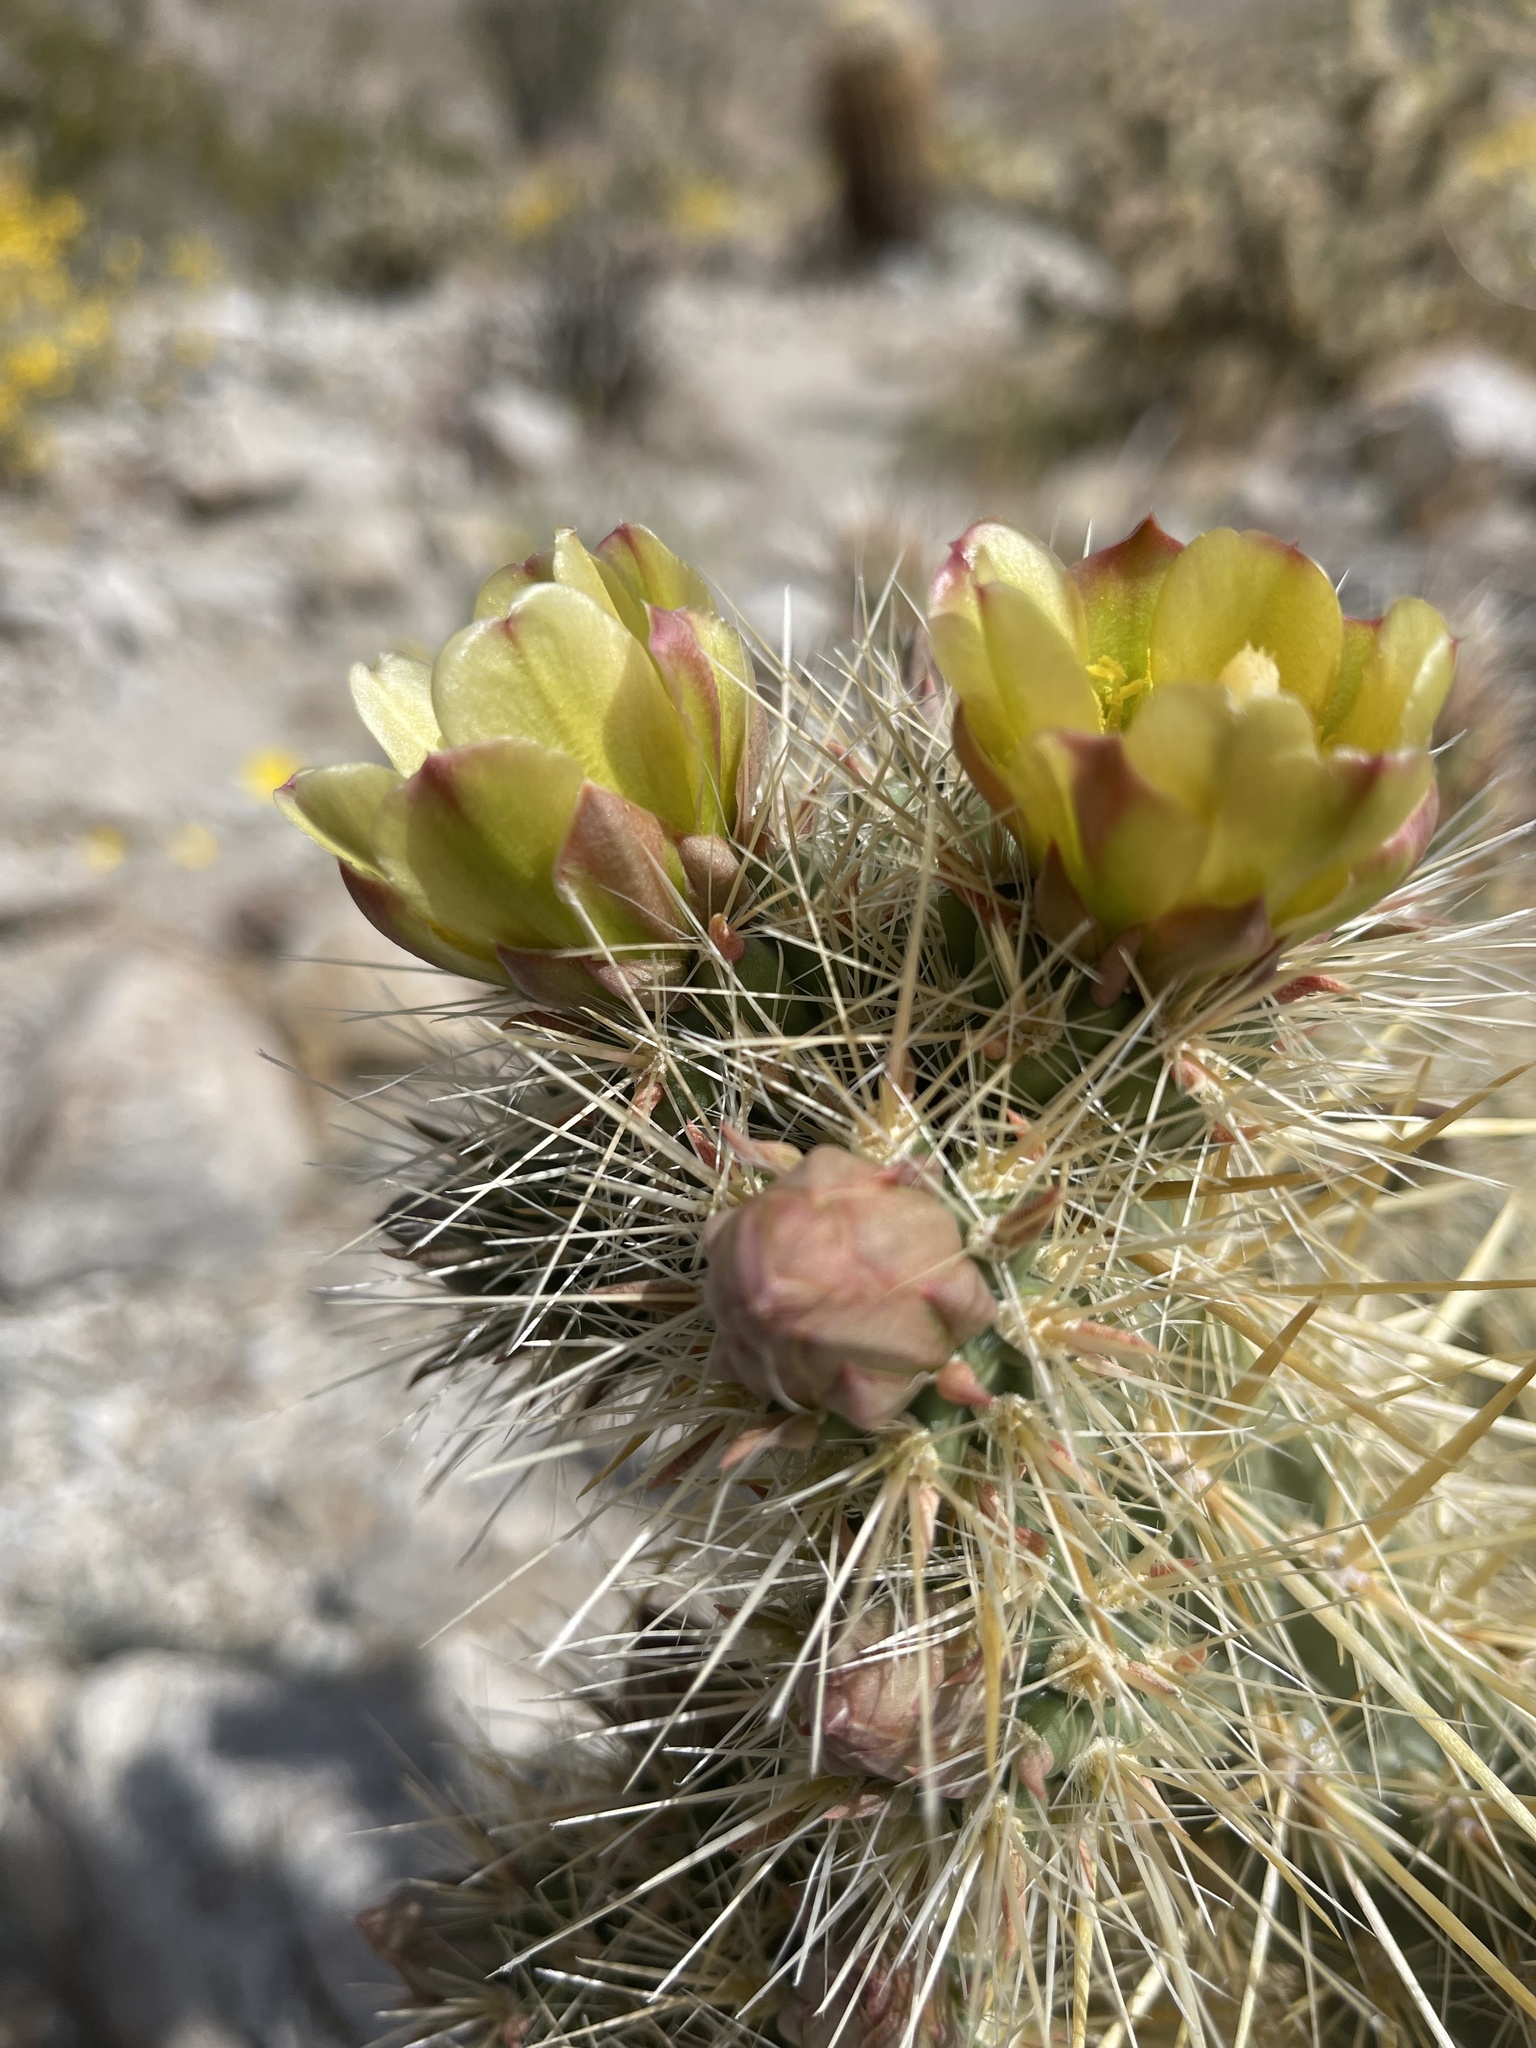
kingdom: Plantae
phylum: Tracheophyta
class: Magnoliopsida
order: Caryophyllales
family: Cactaceae
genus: Cylindropuntia
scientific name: Cylindropuntia ganderi
